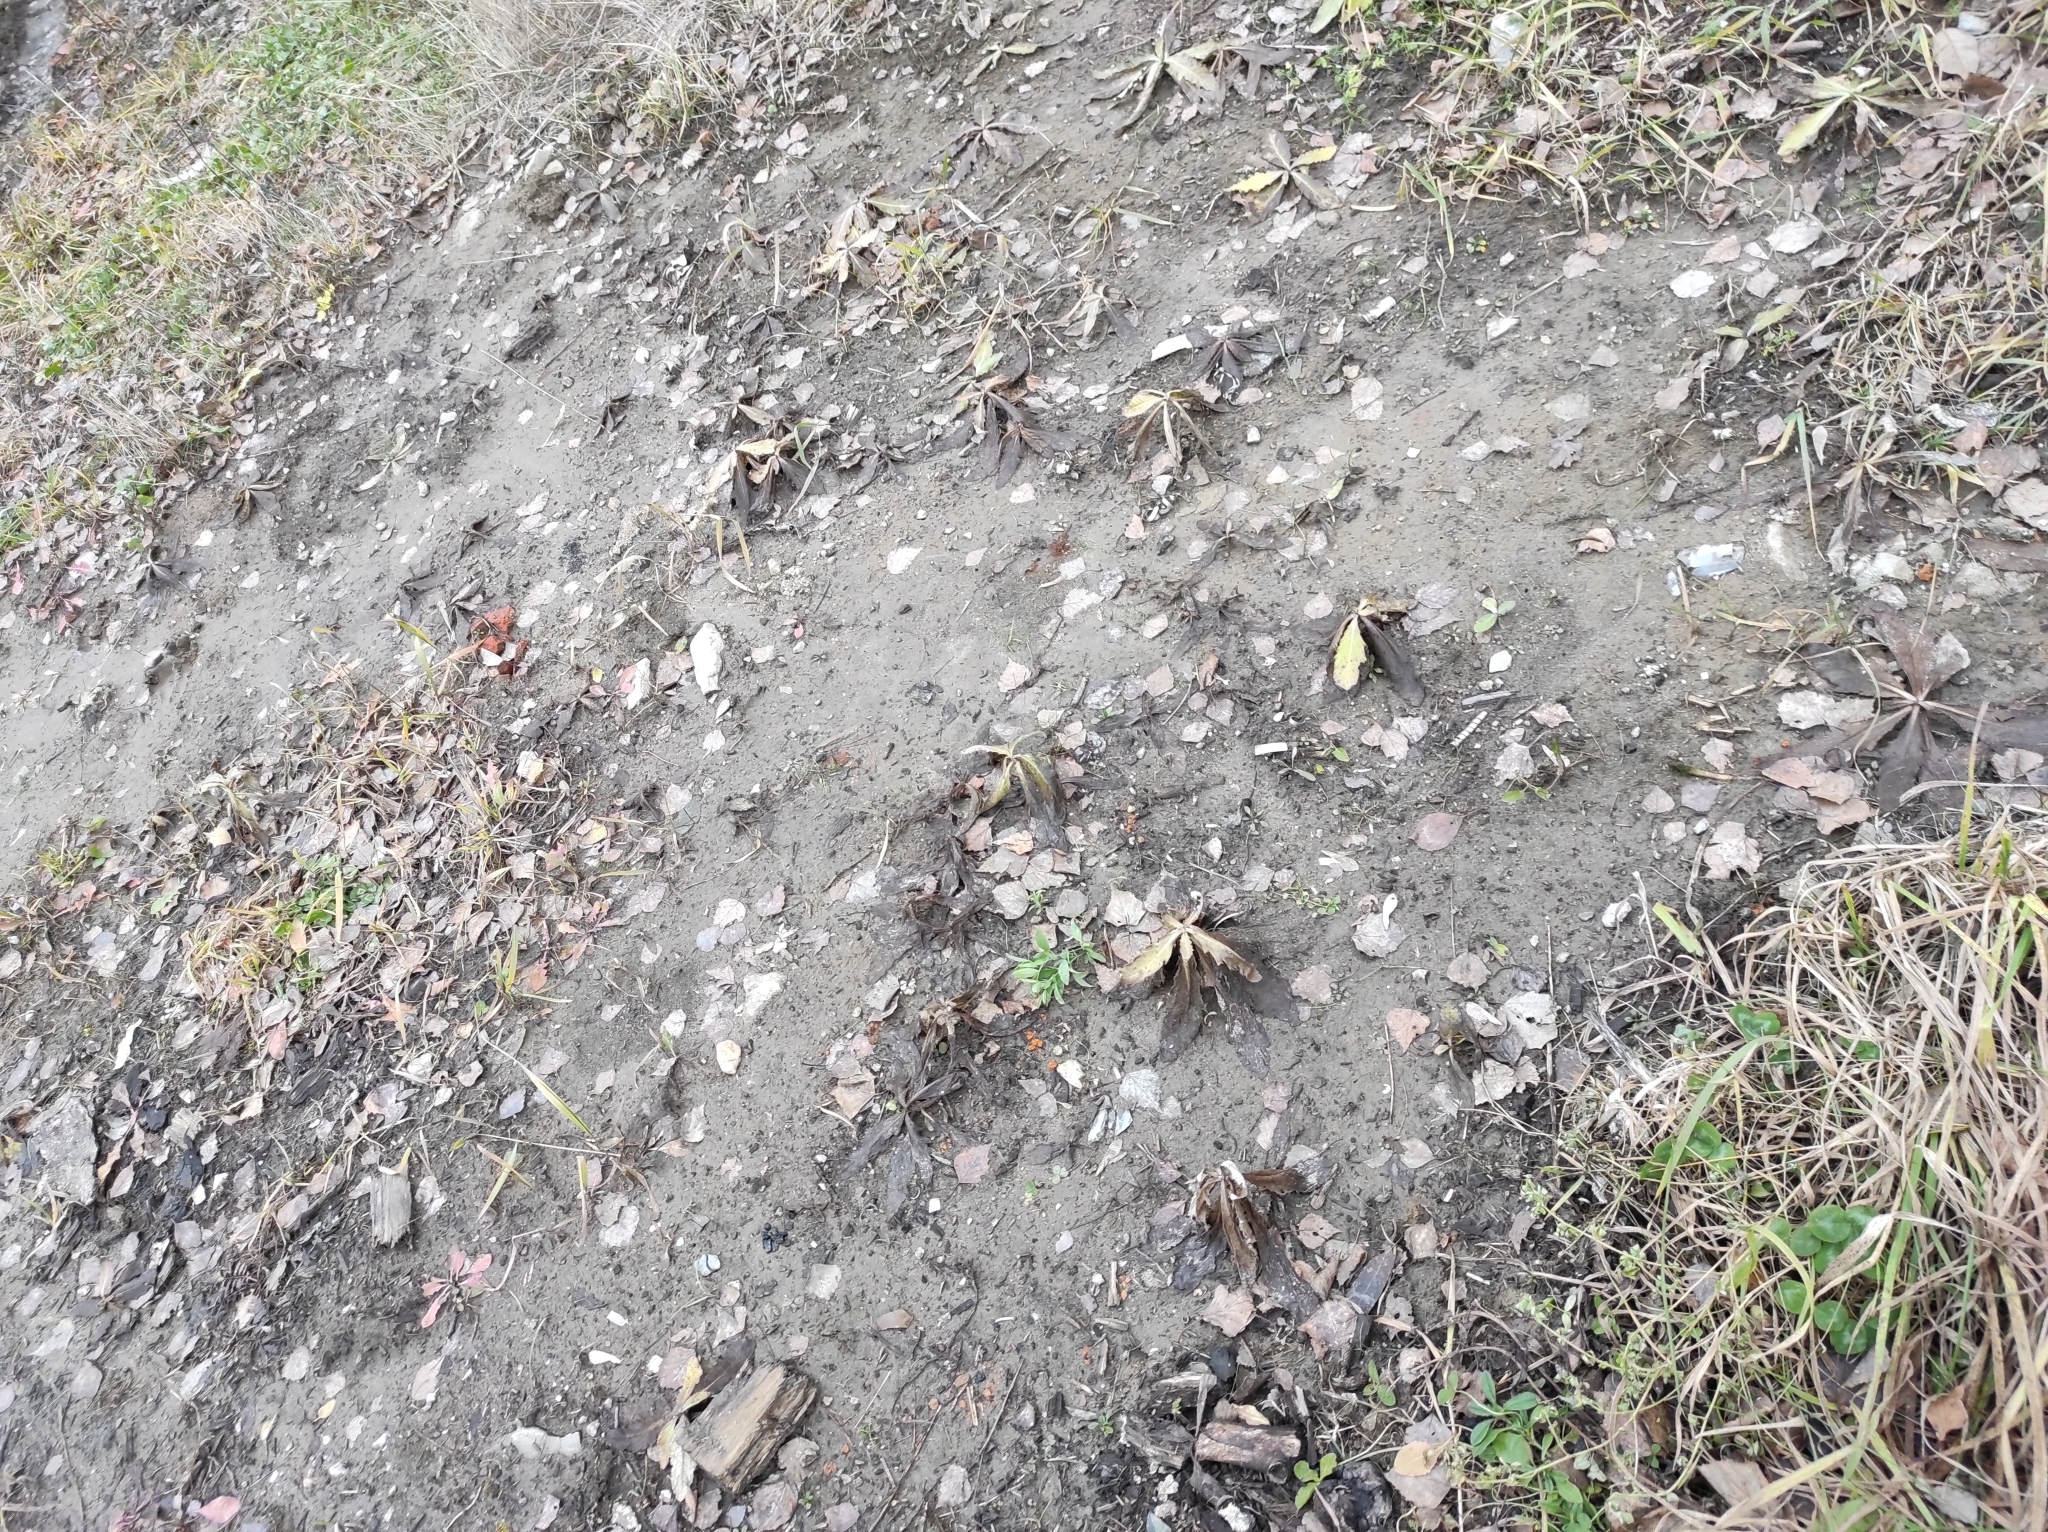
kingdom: Plantae
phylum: Tracheophyta
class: Magnoliopsida
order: Asterales
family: Asteraceae
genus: Cirsium
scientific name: Cirsium arvense
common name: Creeping thistle
